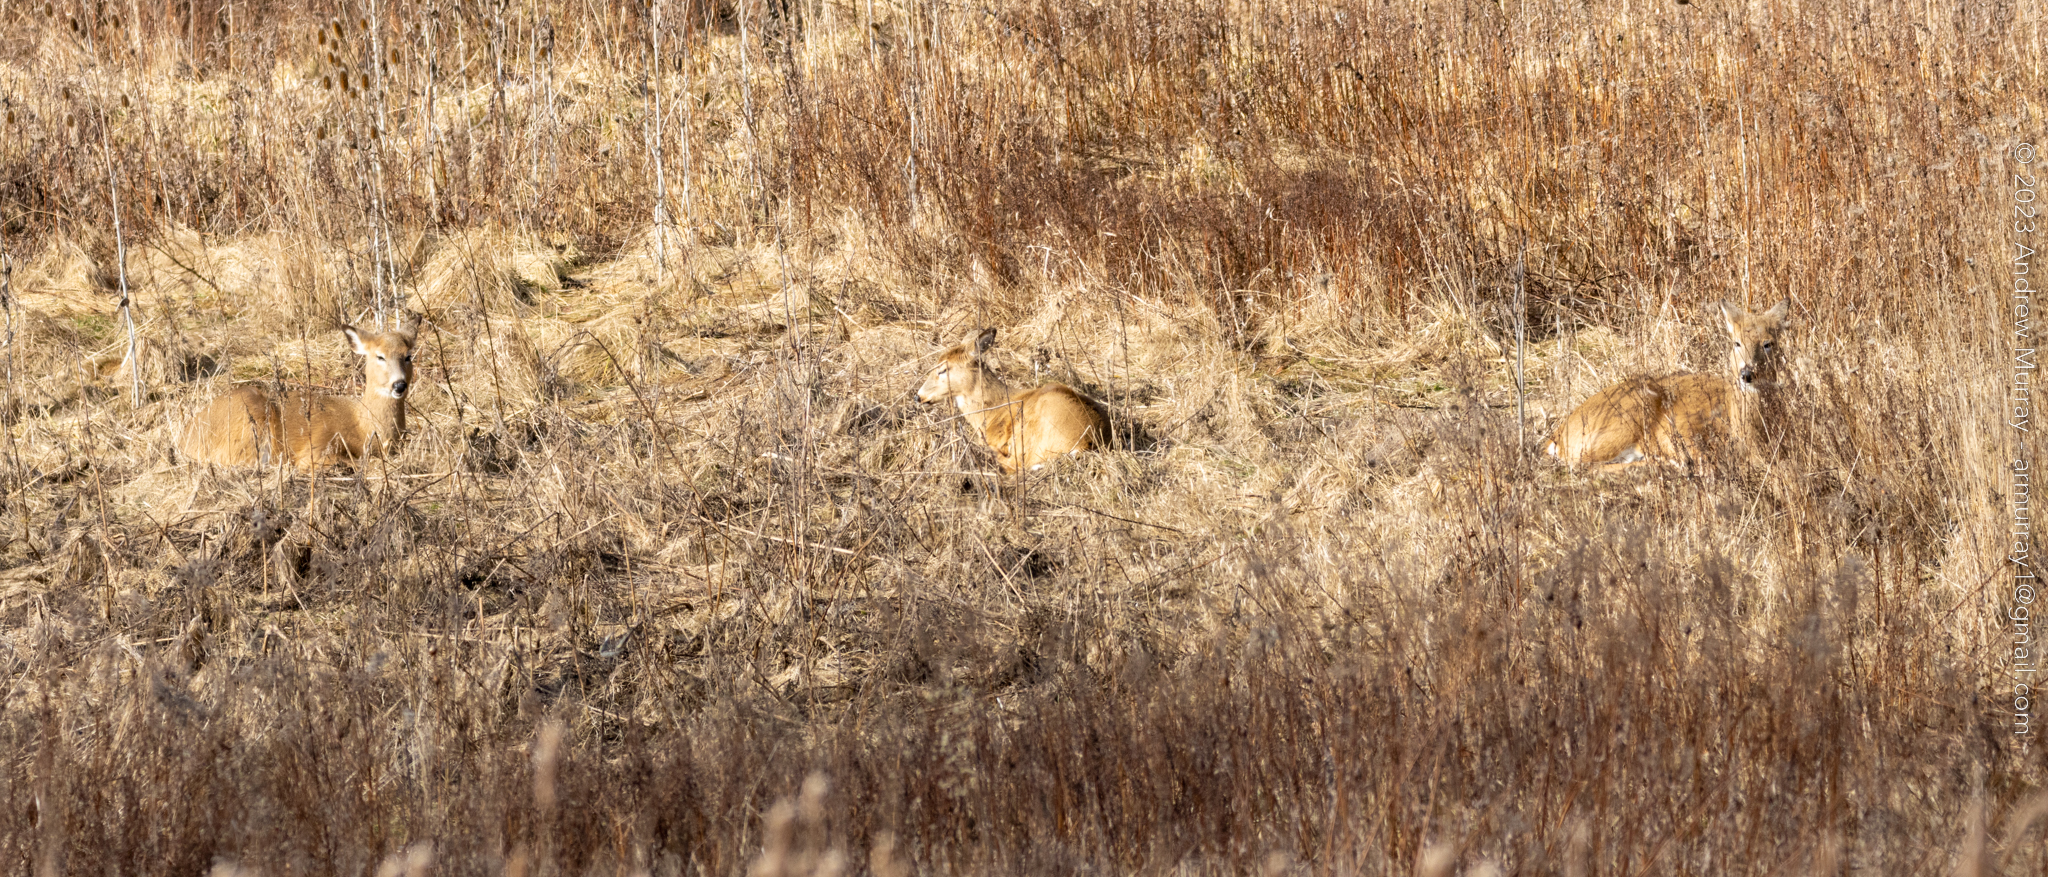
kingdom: Animalia
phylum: Chordata
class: Mammalia
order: Artiodactyla
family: Cervidae
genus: Odocoileus
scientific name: Odocoileus virginianus
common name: White-tailed deer
